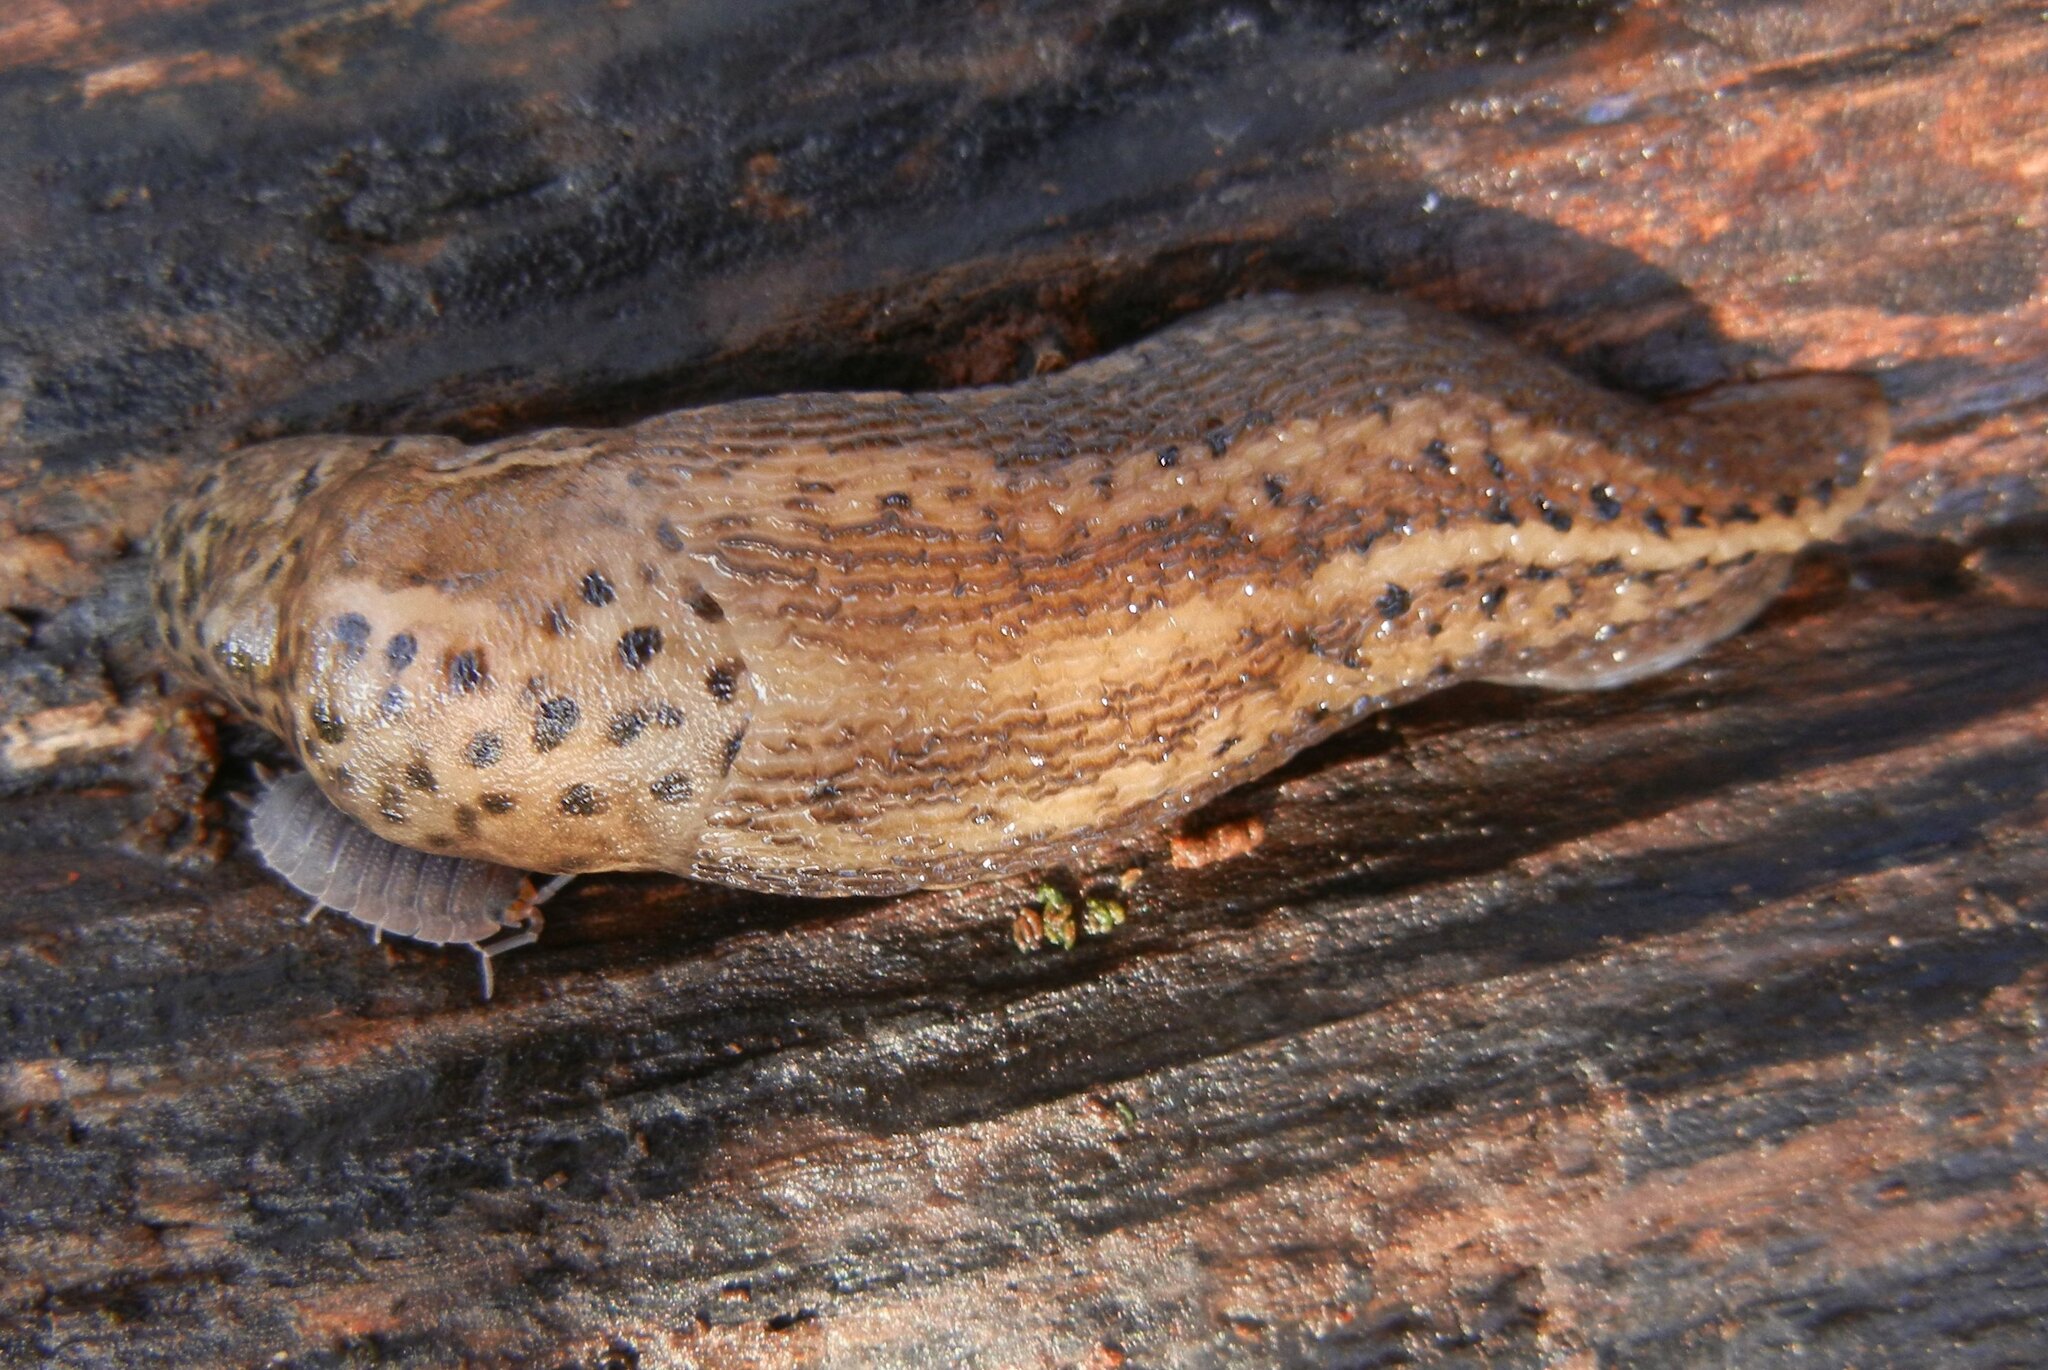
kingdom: Animalia
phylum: Mollusca
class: Gastropoda
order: Stylommatophora
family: Limacidae
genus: Limax
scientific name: Limax maximus
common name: Great grey slug
